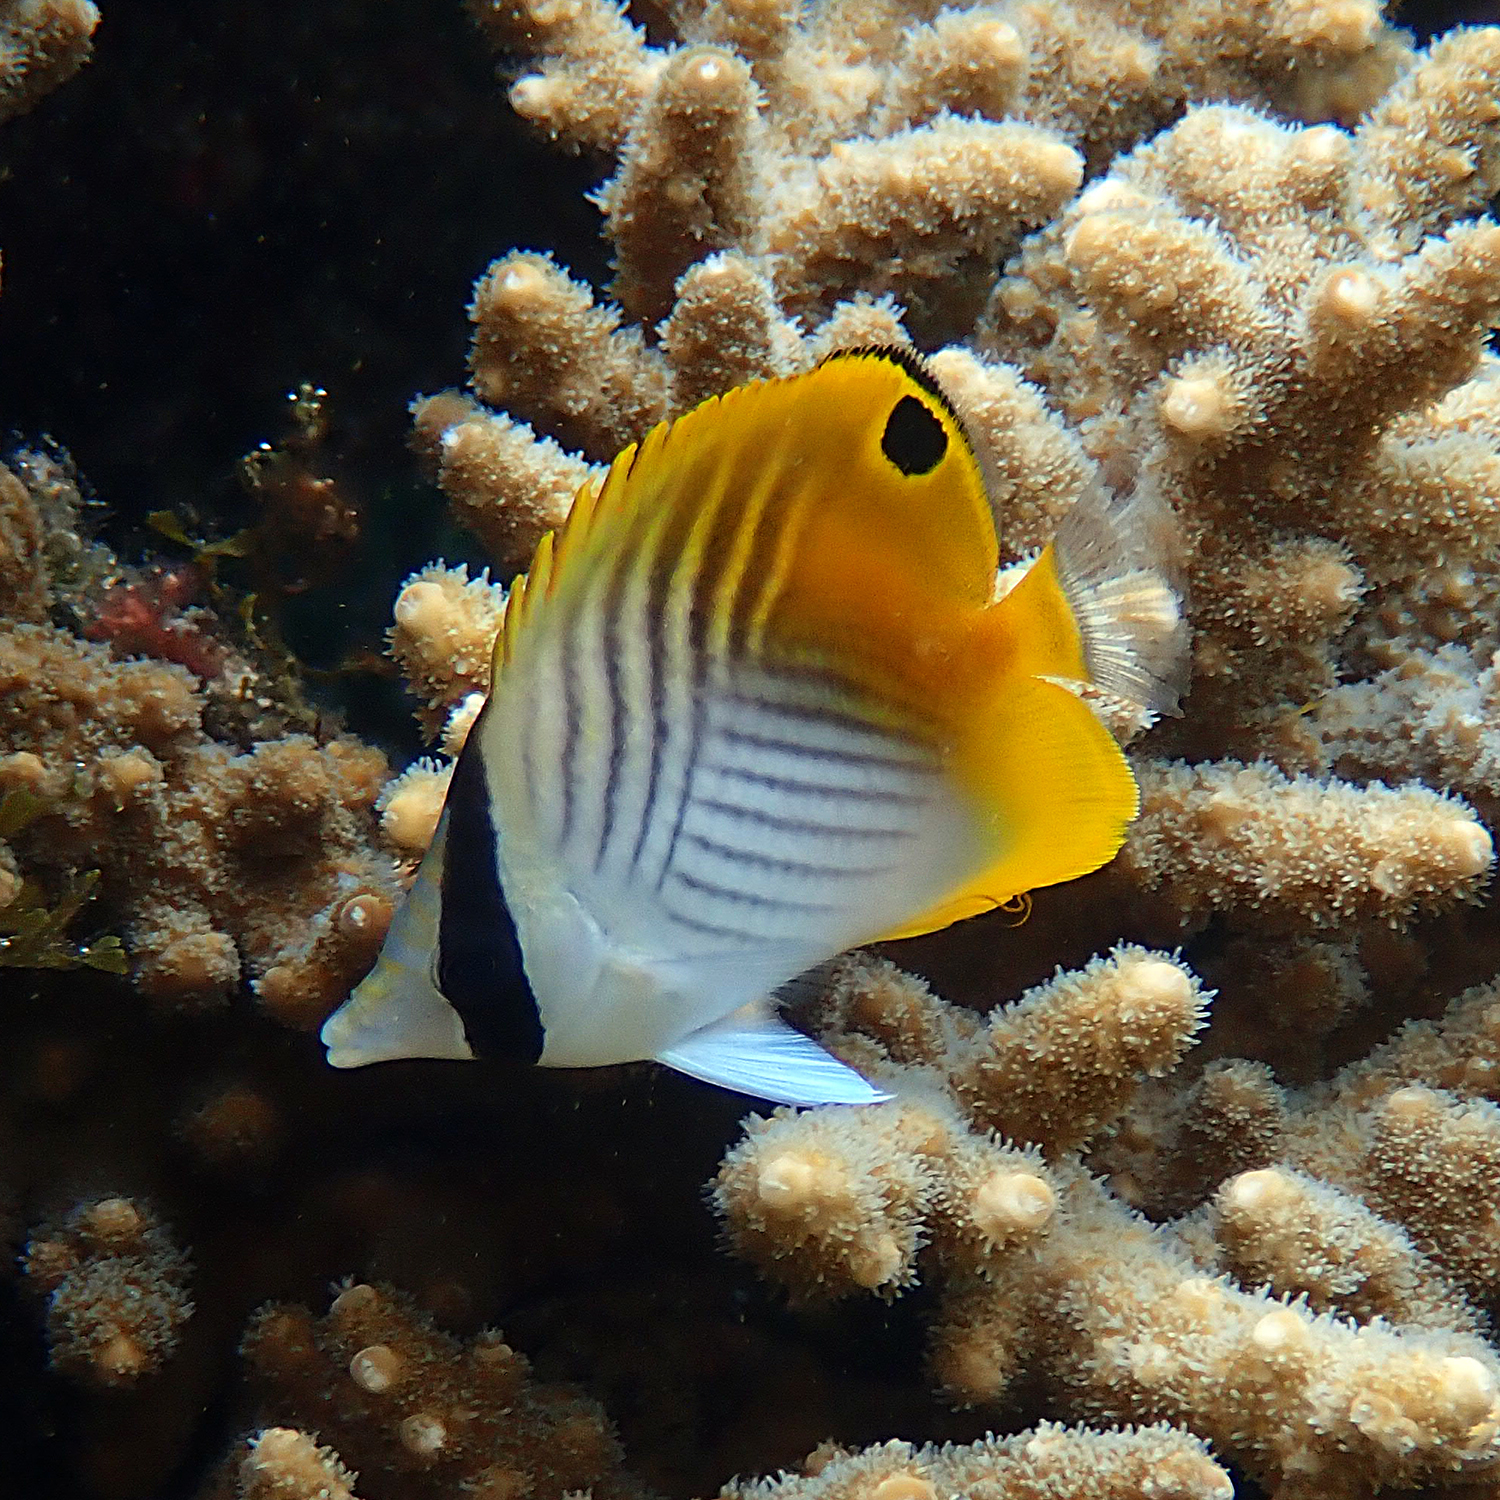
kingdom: Animalia
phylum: Chordata
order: Perciformes
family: Chaetodontidae
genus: Chaetodon
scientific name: Chaetodon auriga
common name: Threadfin butterflyfish
